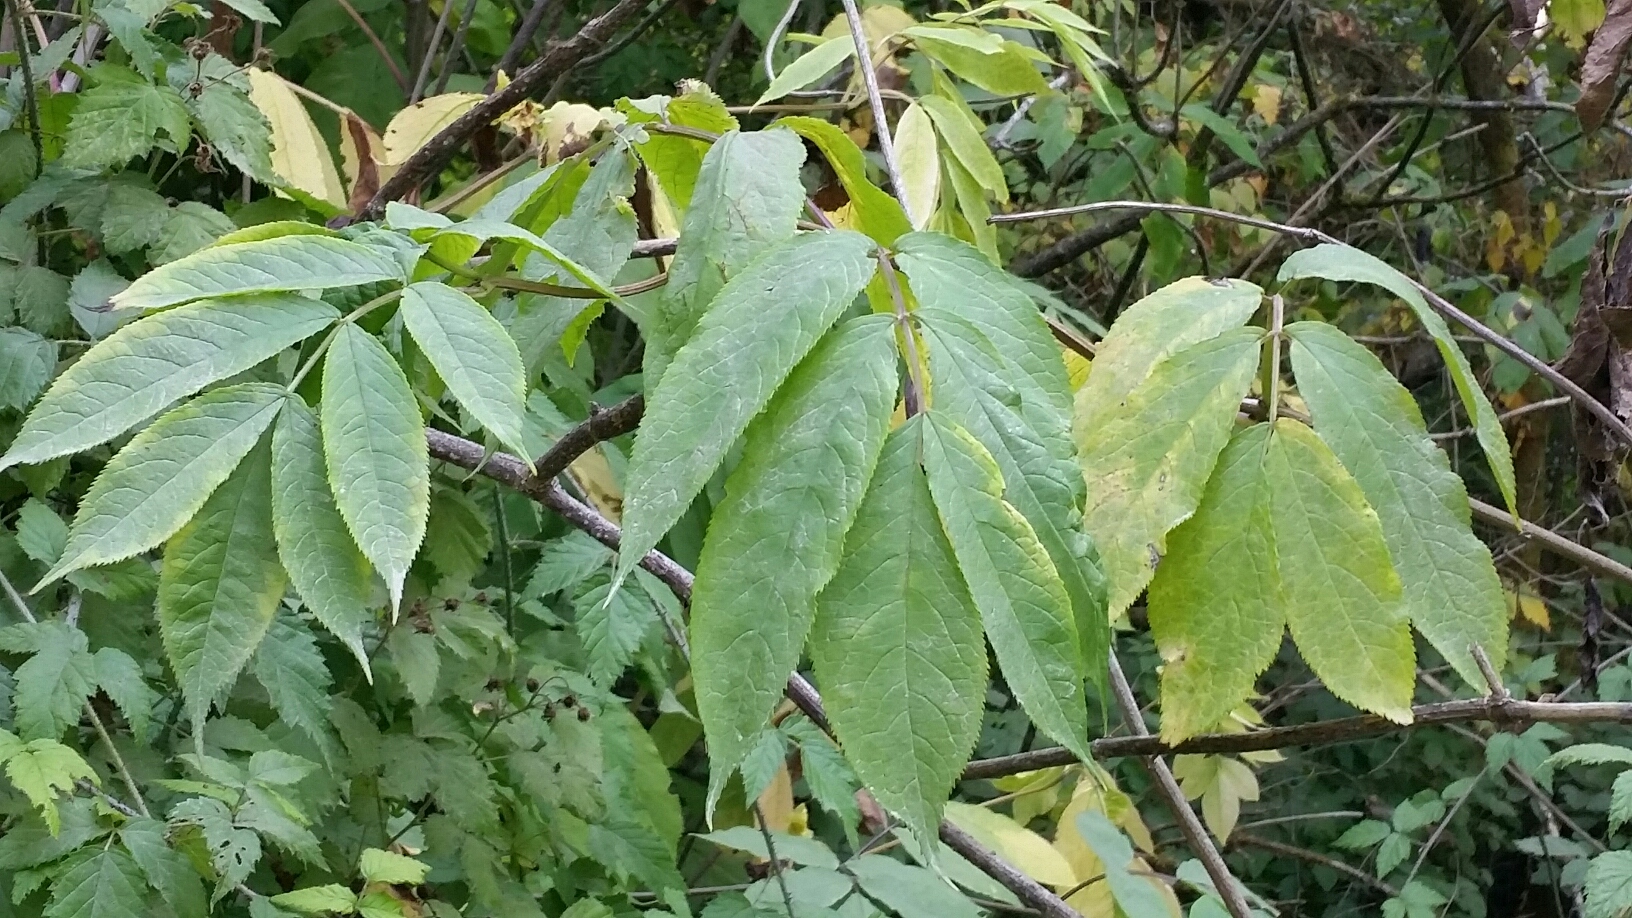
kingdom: Plantae
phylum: Tracheophyta
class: Magnoliopsida
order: Dipsacales
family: Viburnaceae
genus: Sambucus
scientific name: Sambucus racemosa
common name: Red-berried elder
